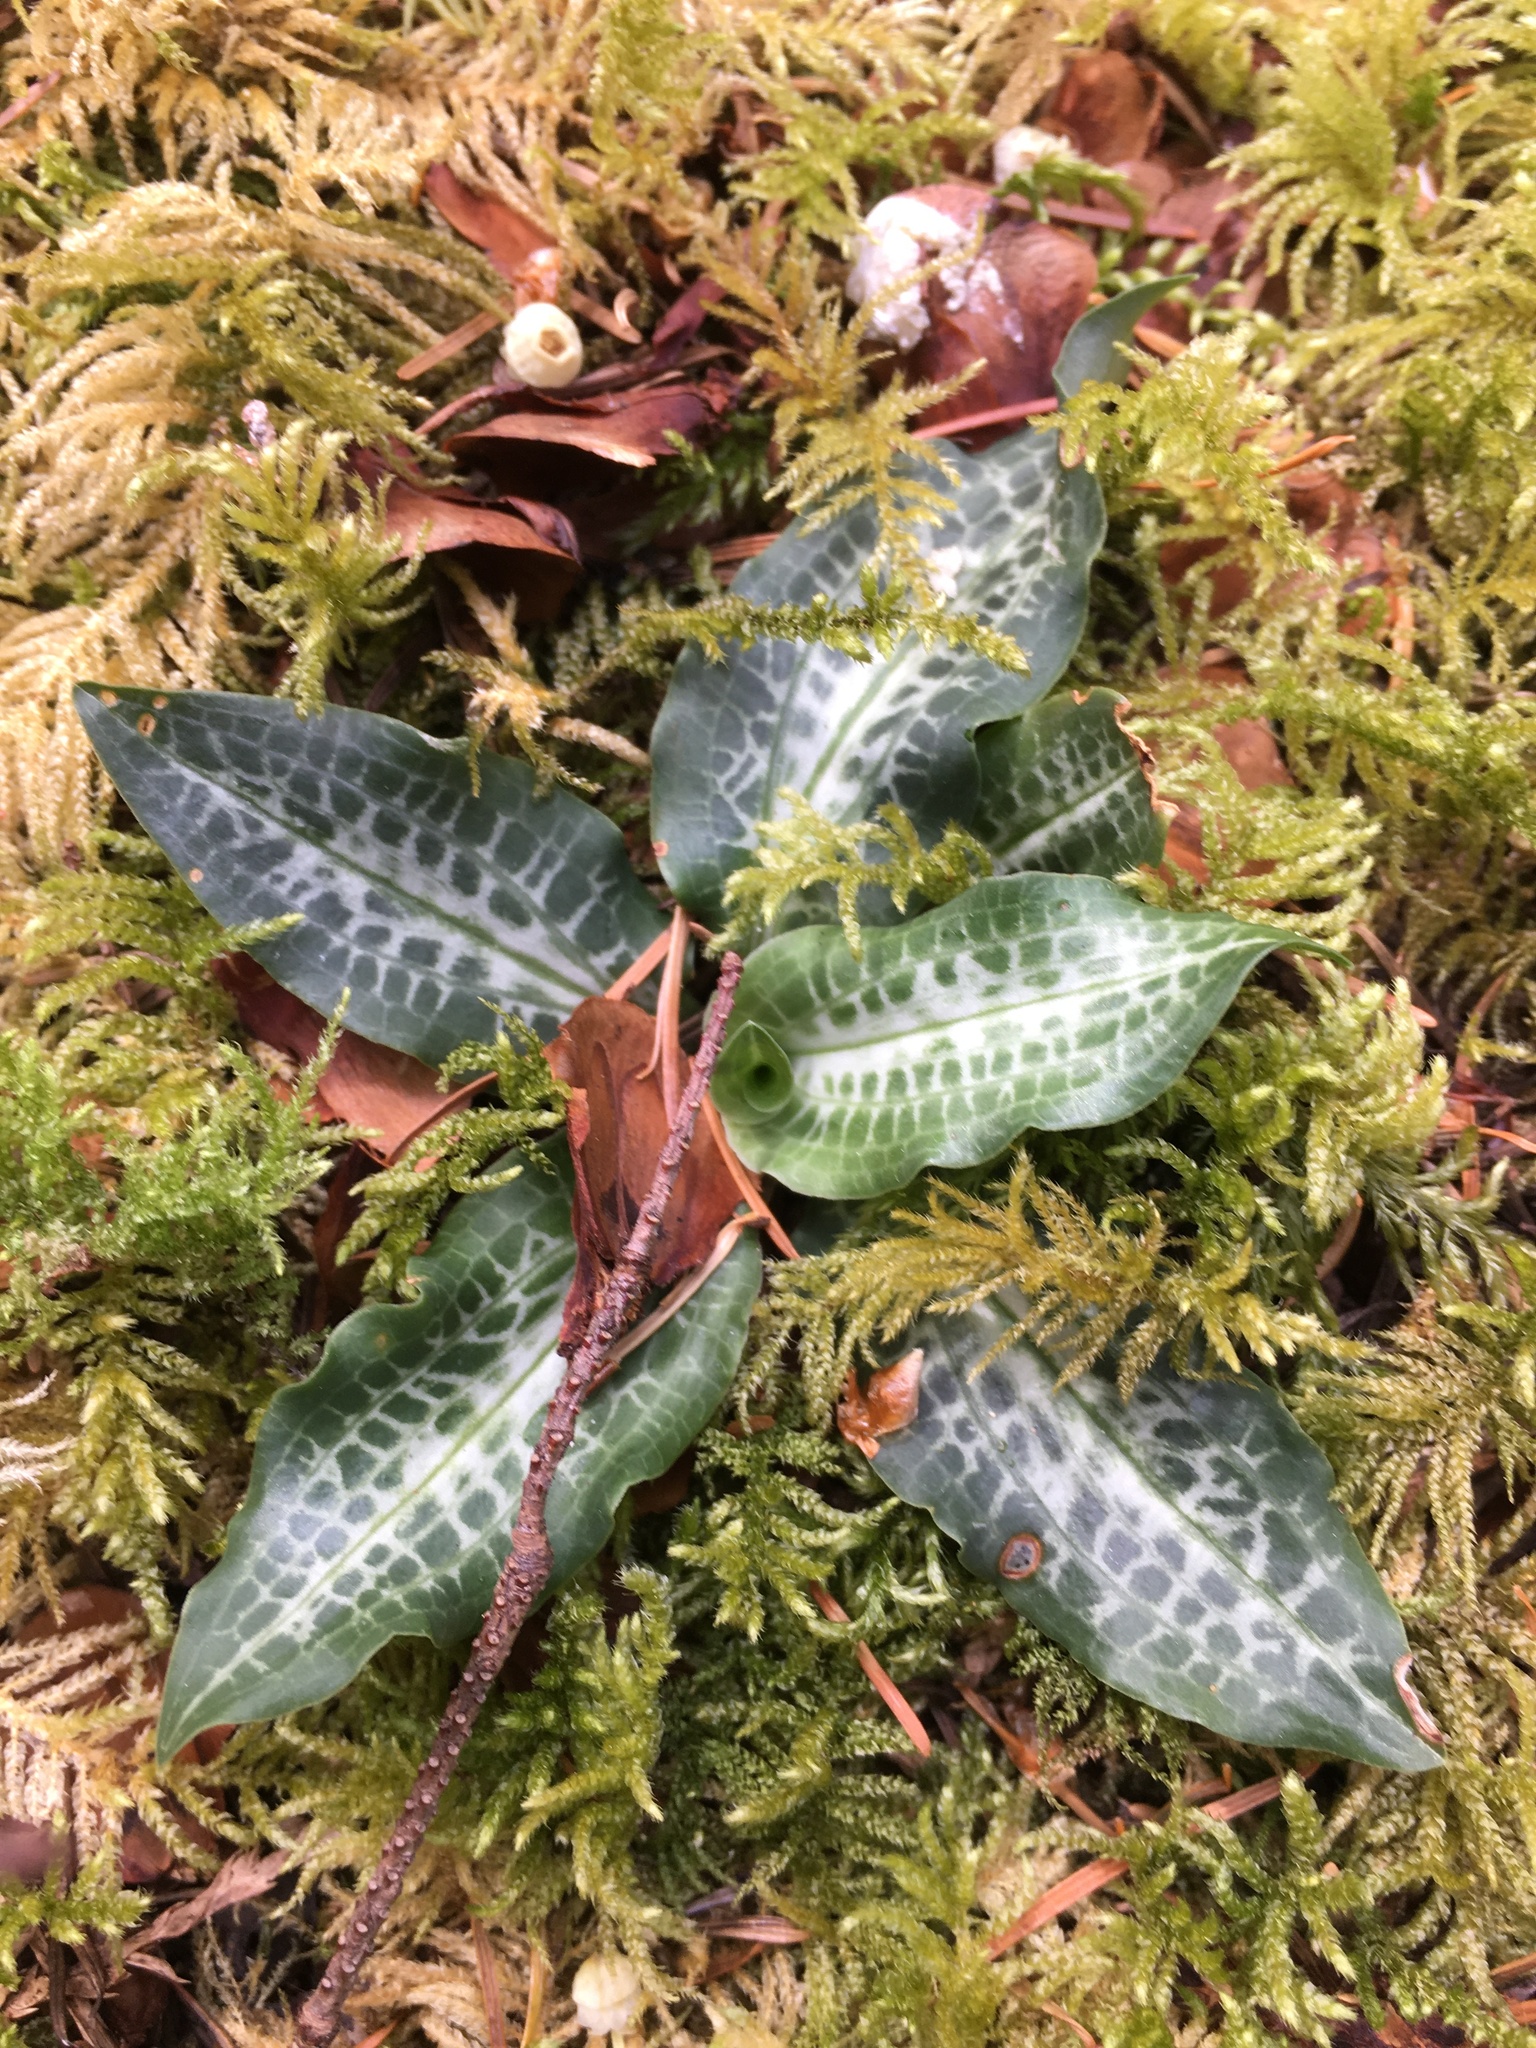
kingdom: Plantae
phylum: Tracheophyta
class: Liliopsida
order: Asparagales
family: Orchidaceae
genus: Goodyera
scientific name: Goodyera oblongifolia
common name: Giant rattlesnake-plantain
